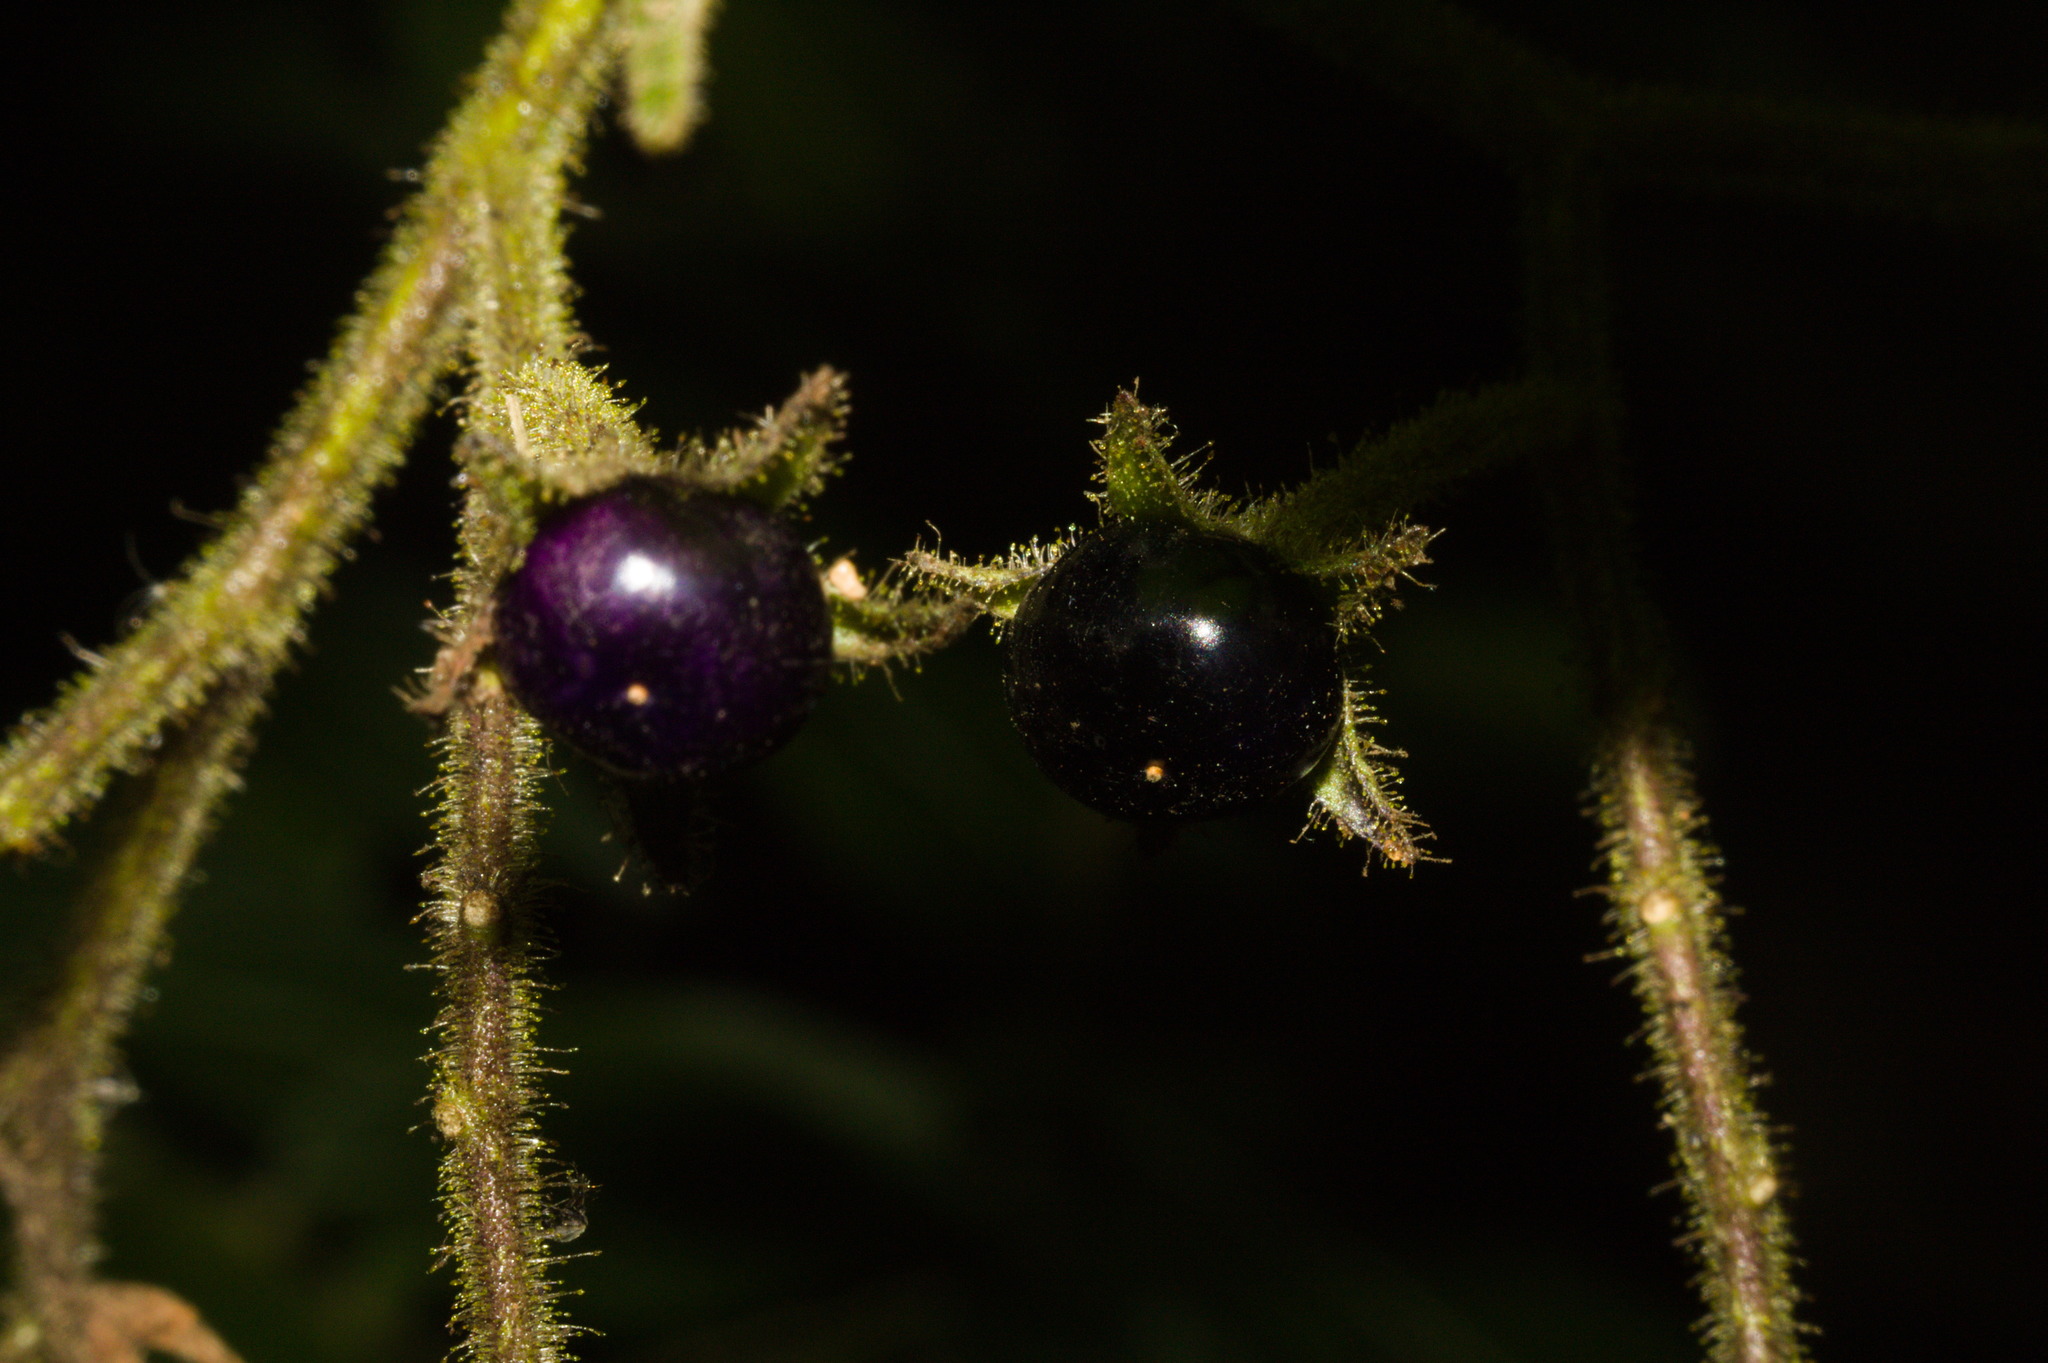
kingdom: Plantae
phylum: Tracheophyta
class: Magnoliopsida
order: Solanales
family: Solanaceae
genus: Solanum
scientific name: Solanum concinnum
